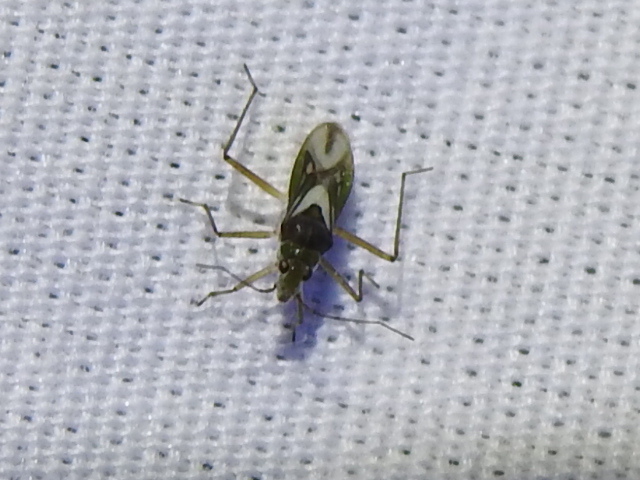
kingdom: Animalia
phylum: Arthropoda
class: Insecta
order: Hemiptera
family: Mesoveliidae
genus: Mesovelia
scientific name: Mesovelia mulsanti
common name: Water treaders
